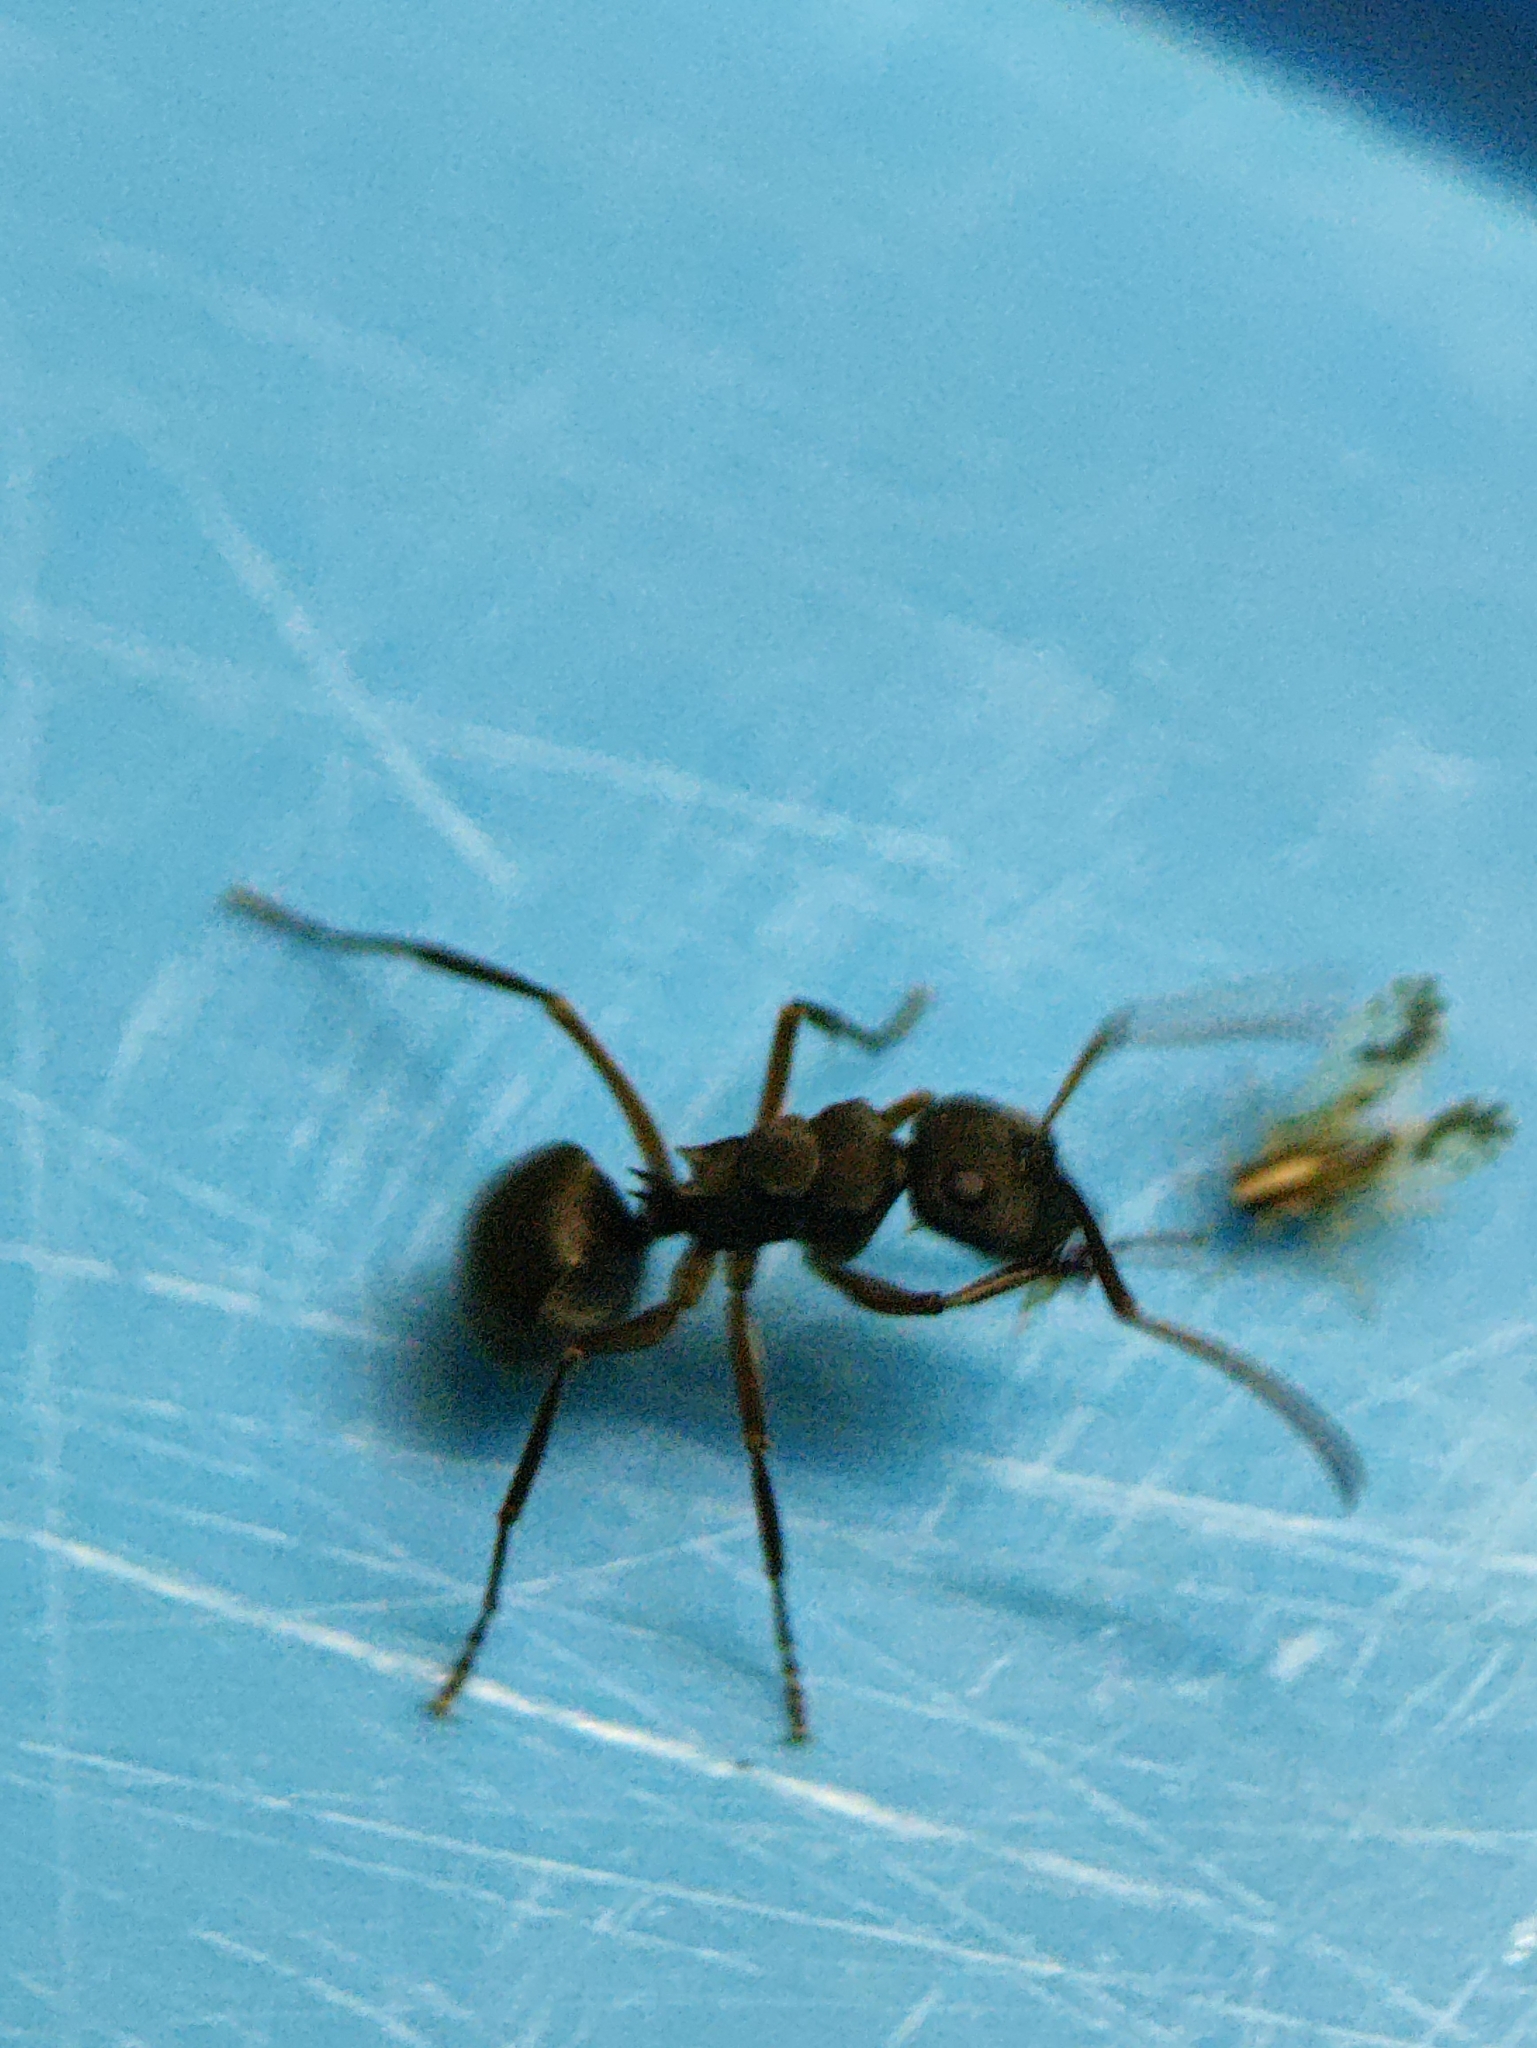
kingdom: Animalia
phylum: Arthropoda
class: Insecta
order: Hymenoptera
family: Formicidae
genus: Polyrhachis
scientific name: Polyrhachis exercita
